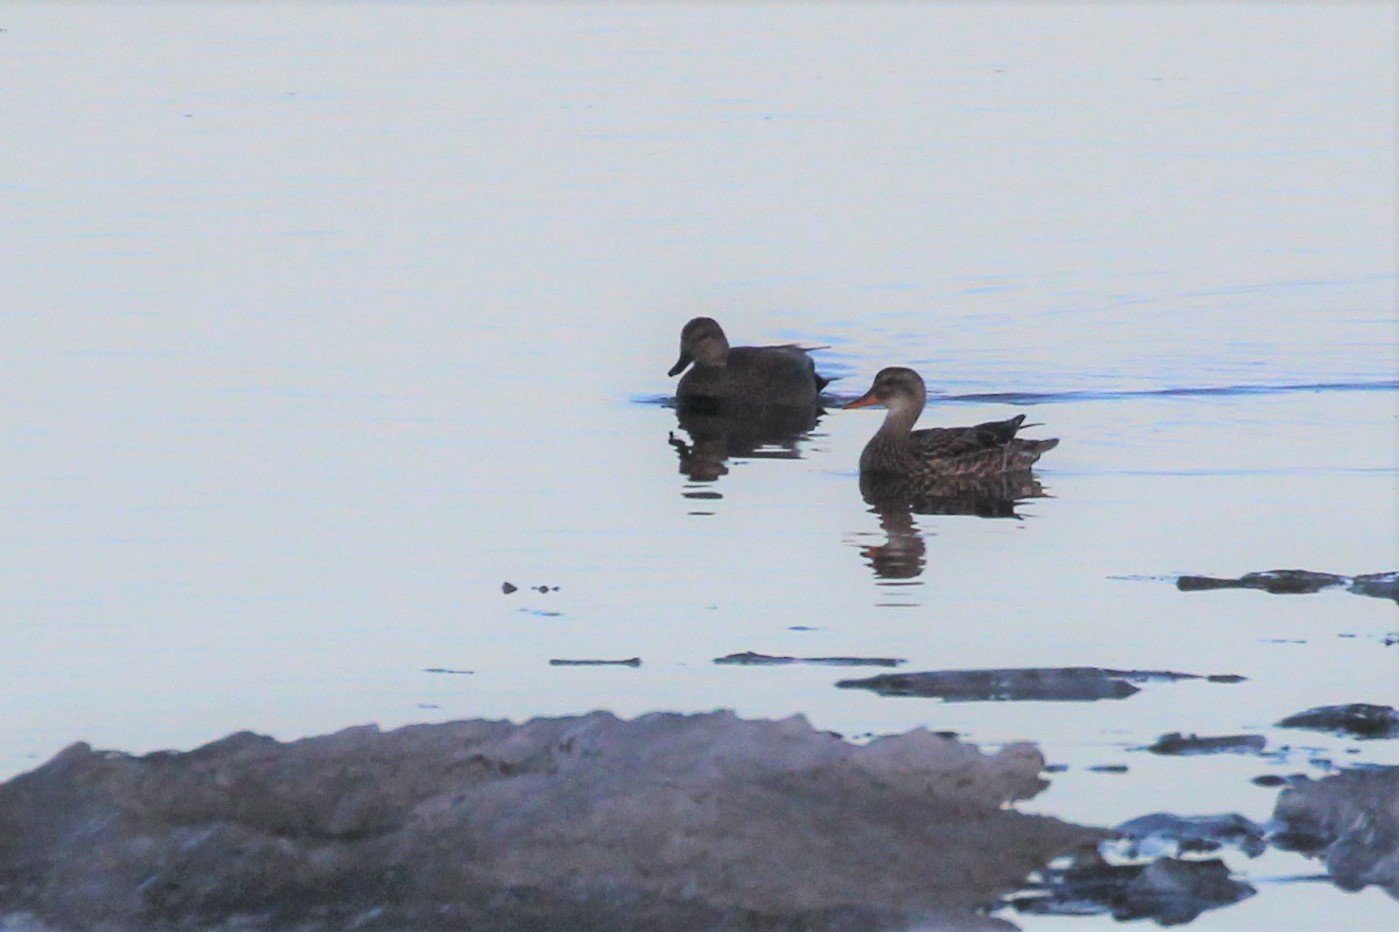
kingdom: Animalia
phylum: Chordata
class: Aves
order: Anseriformes
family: Anatidae
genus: Mareca
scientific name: Mareca strepera
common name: Gadwall
